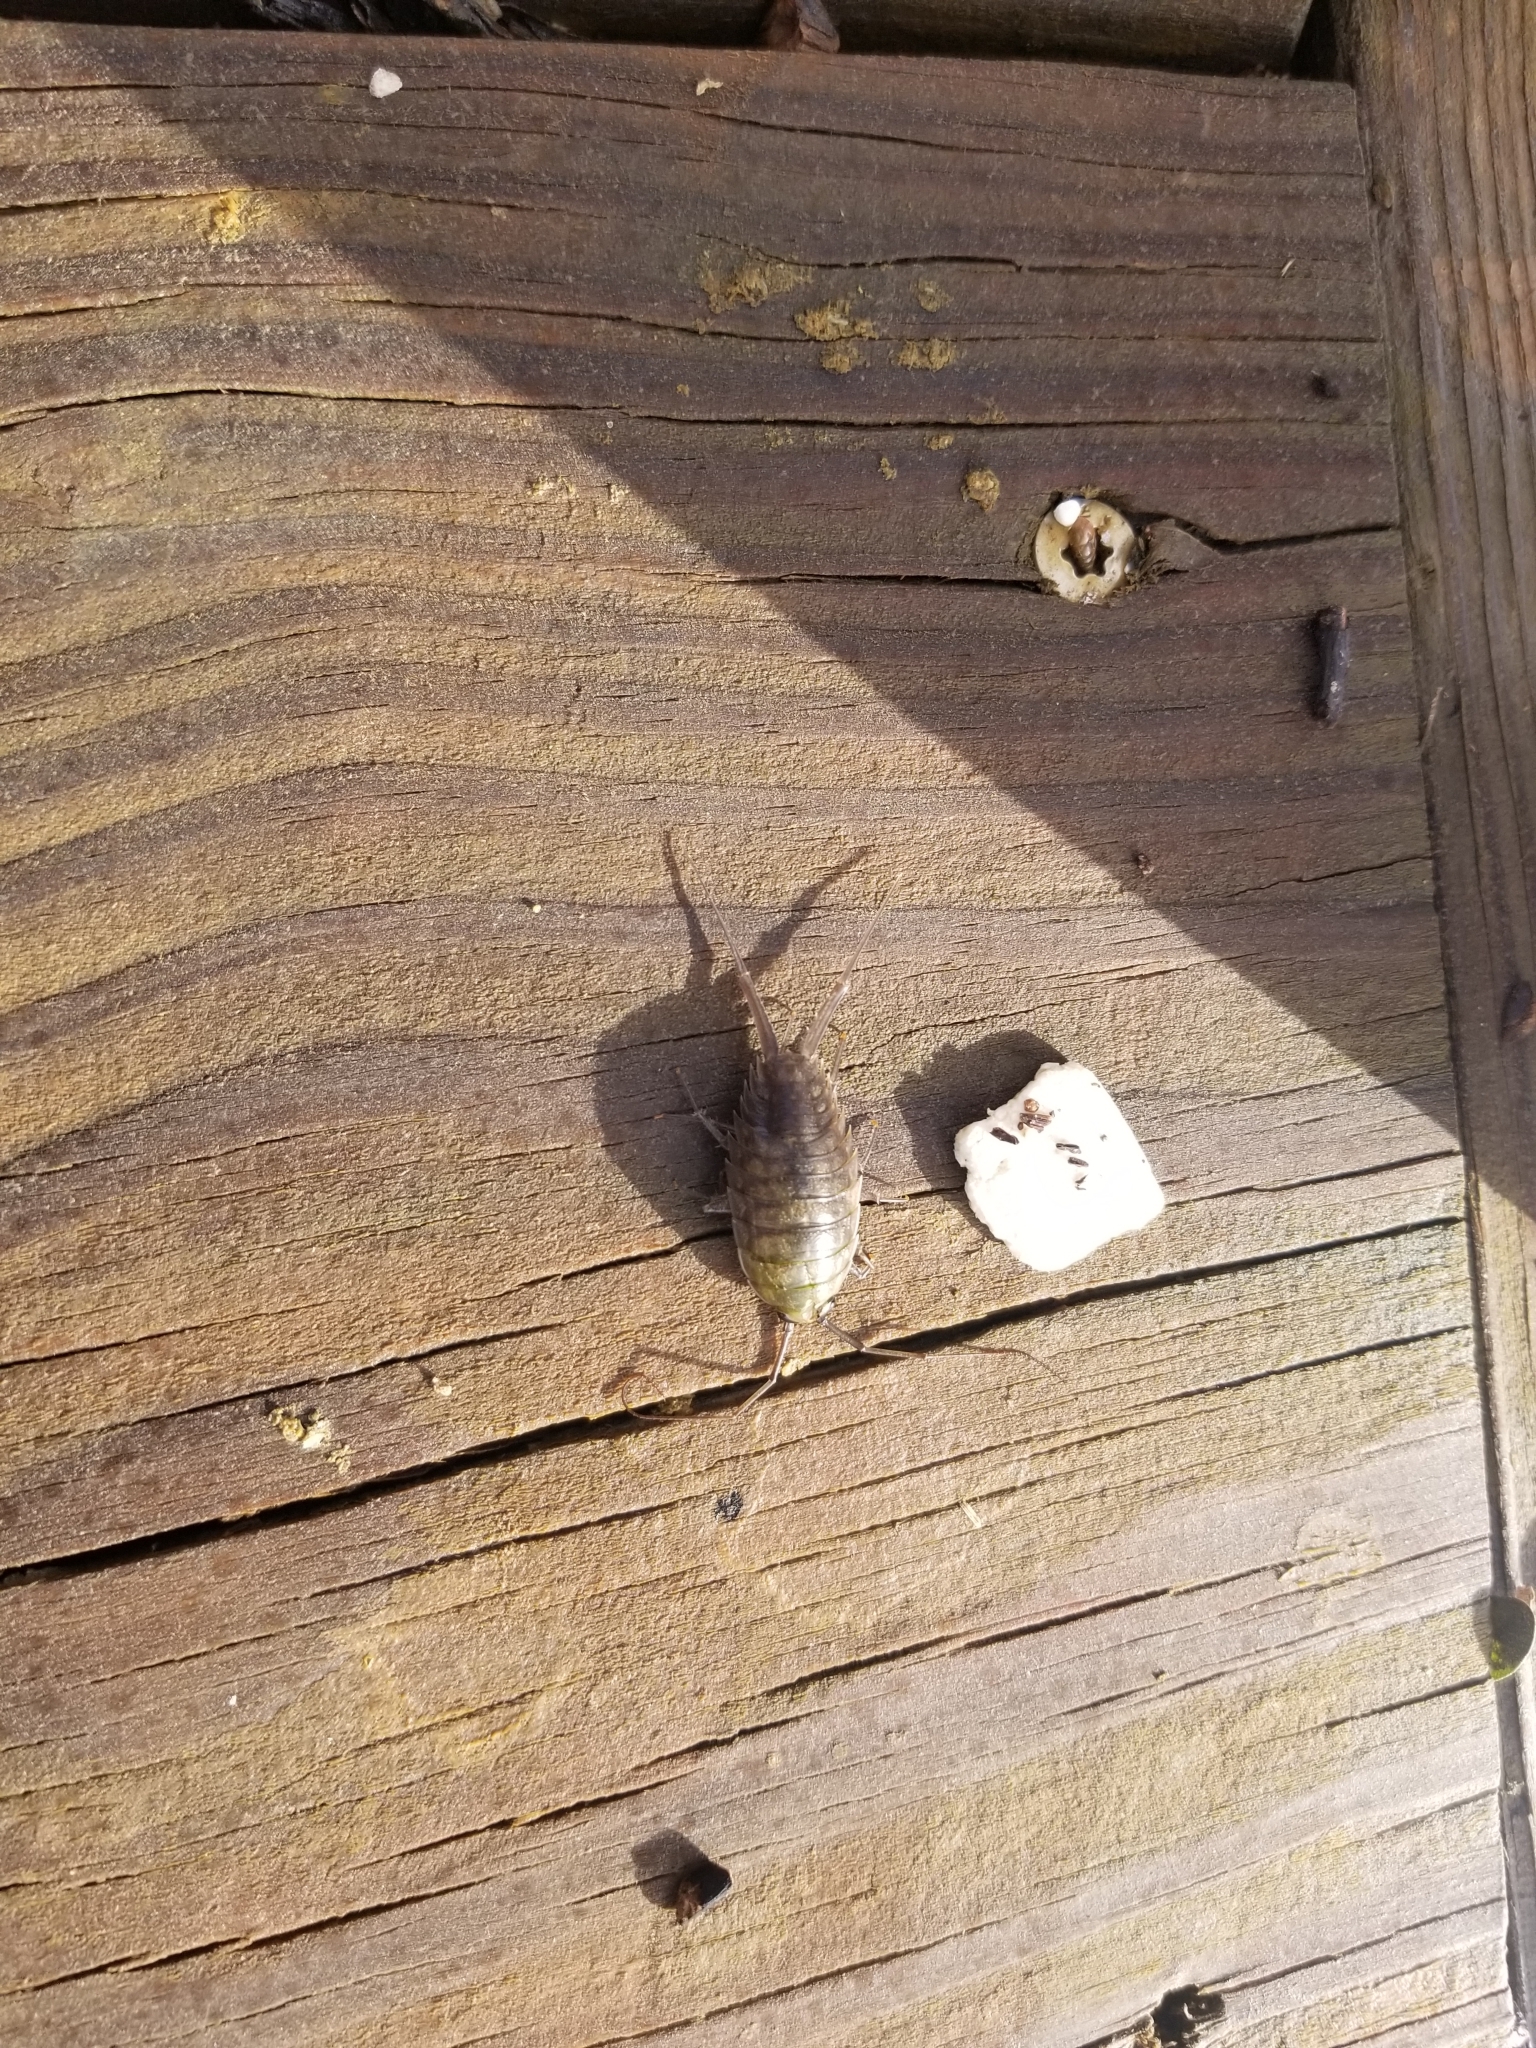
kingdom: Animalia
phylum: Arthropoda
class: Malacostraca
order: Isopoda
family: Ligiidae
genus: Ligia
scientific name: Ligia exotica
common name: Wharf roach
